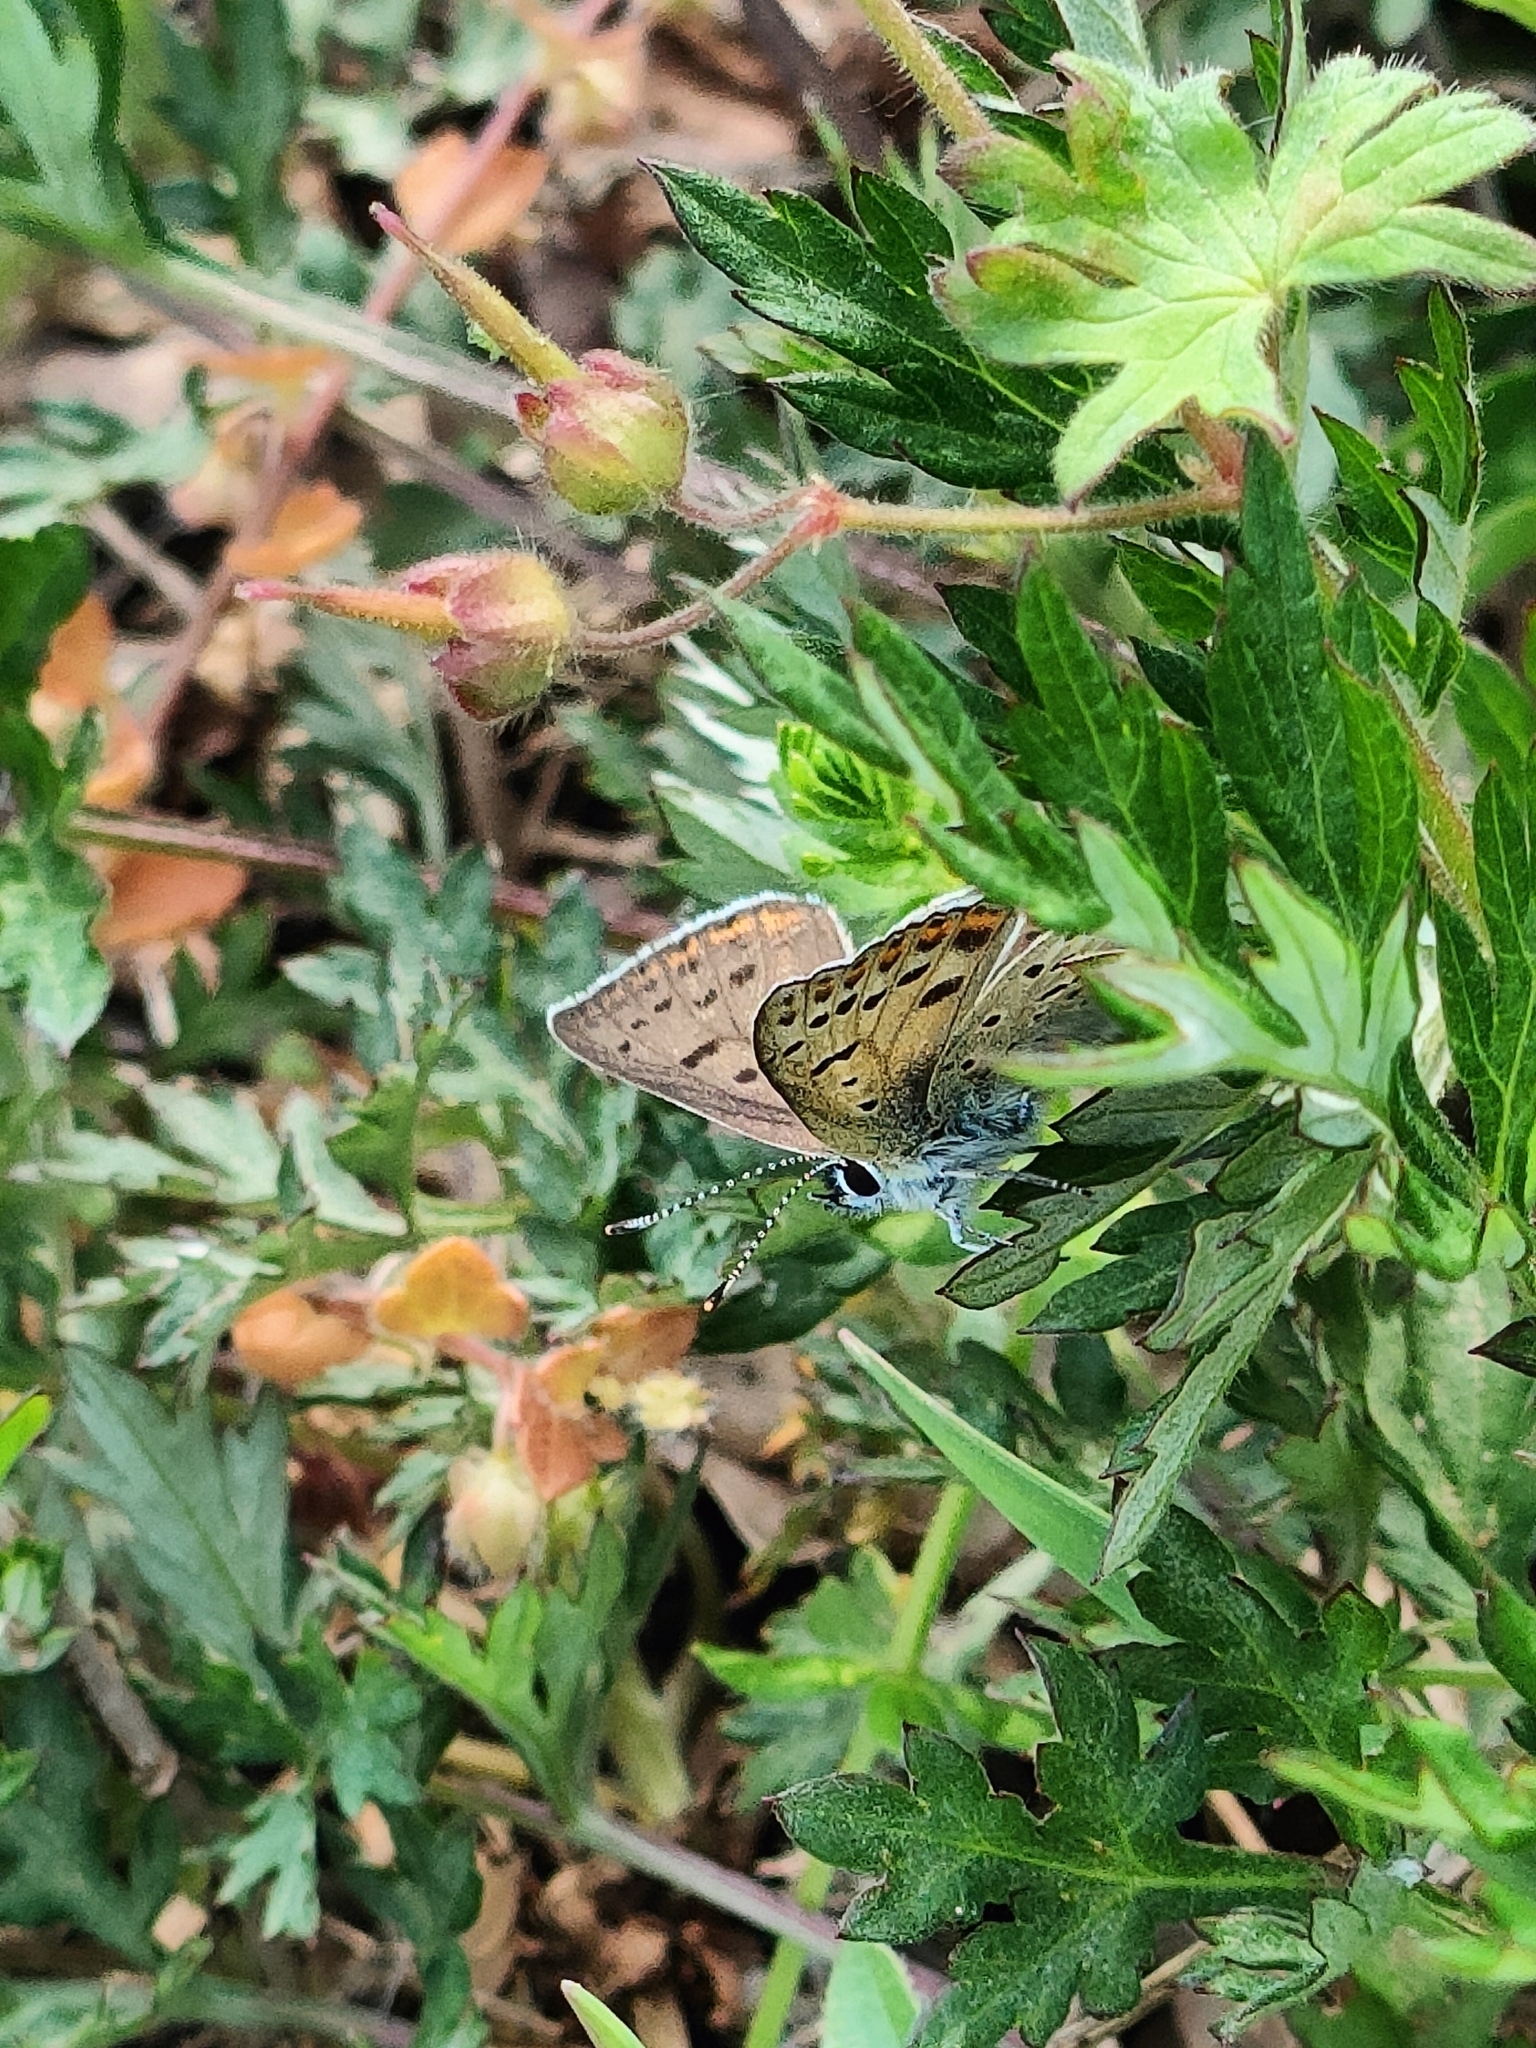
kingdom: Animalia
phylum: Arthropoda
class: Insecta
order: Lepidoptera
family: Lycaenidae
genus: Loweia
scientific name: Loweia tityrus
